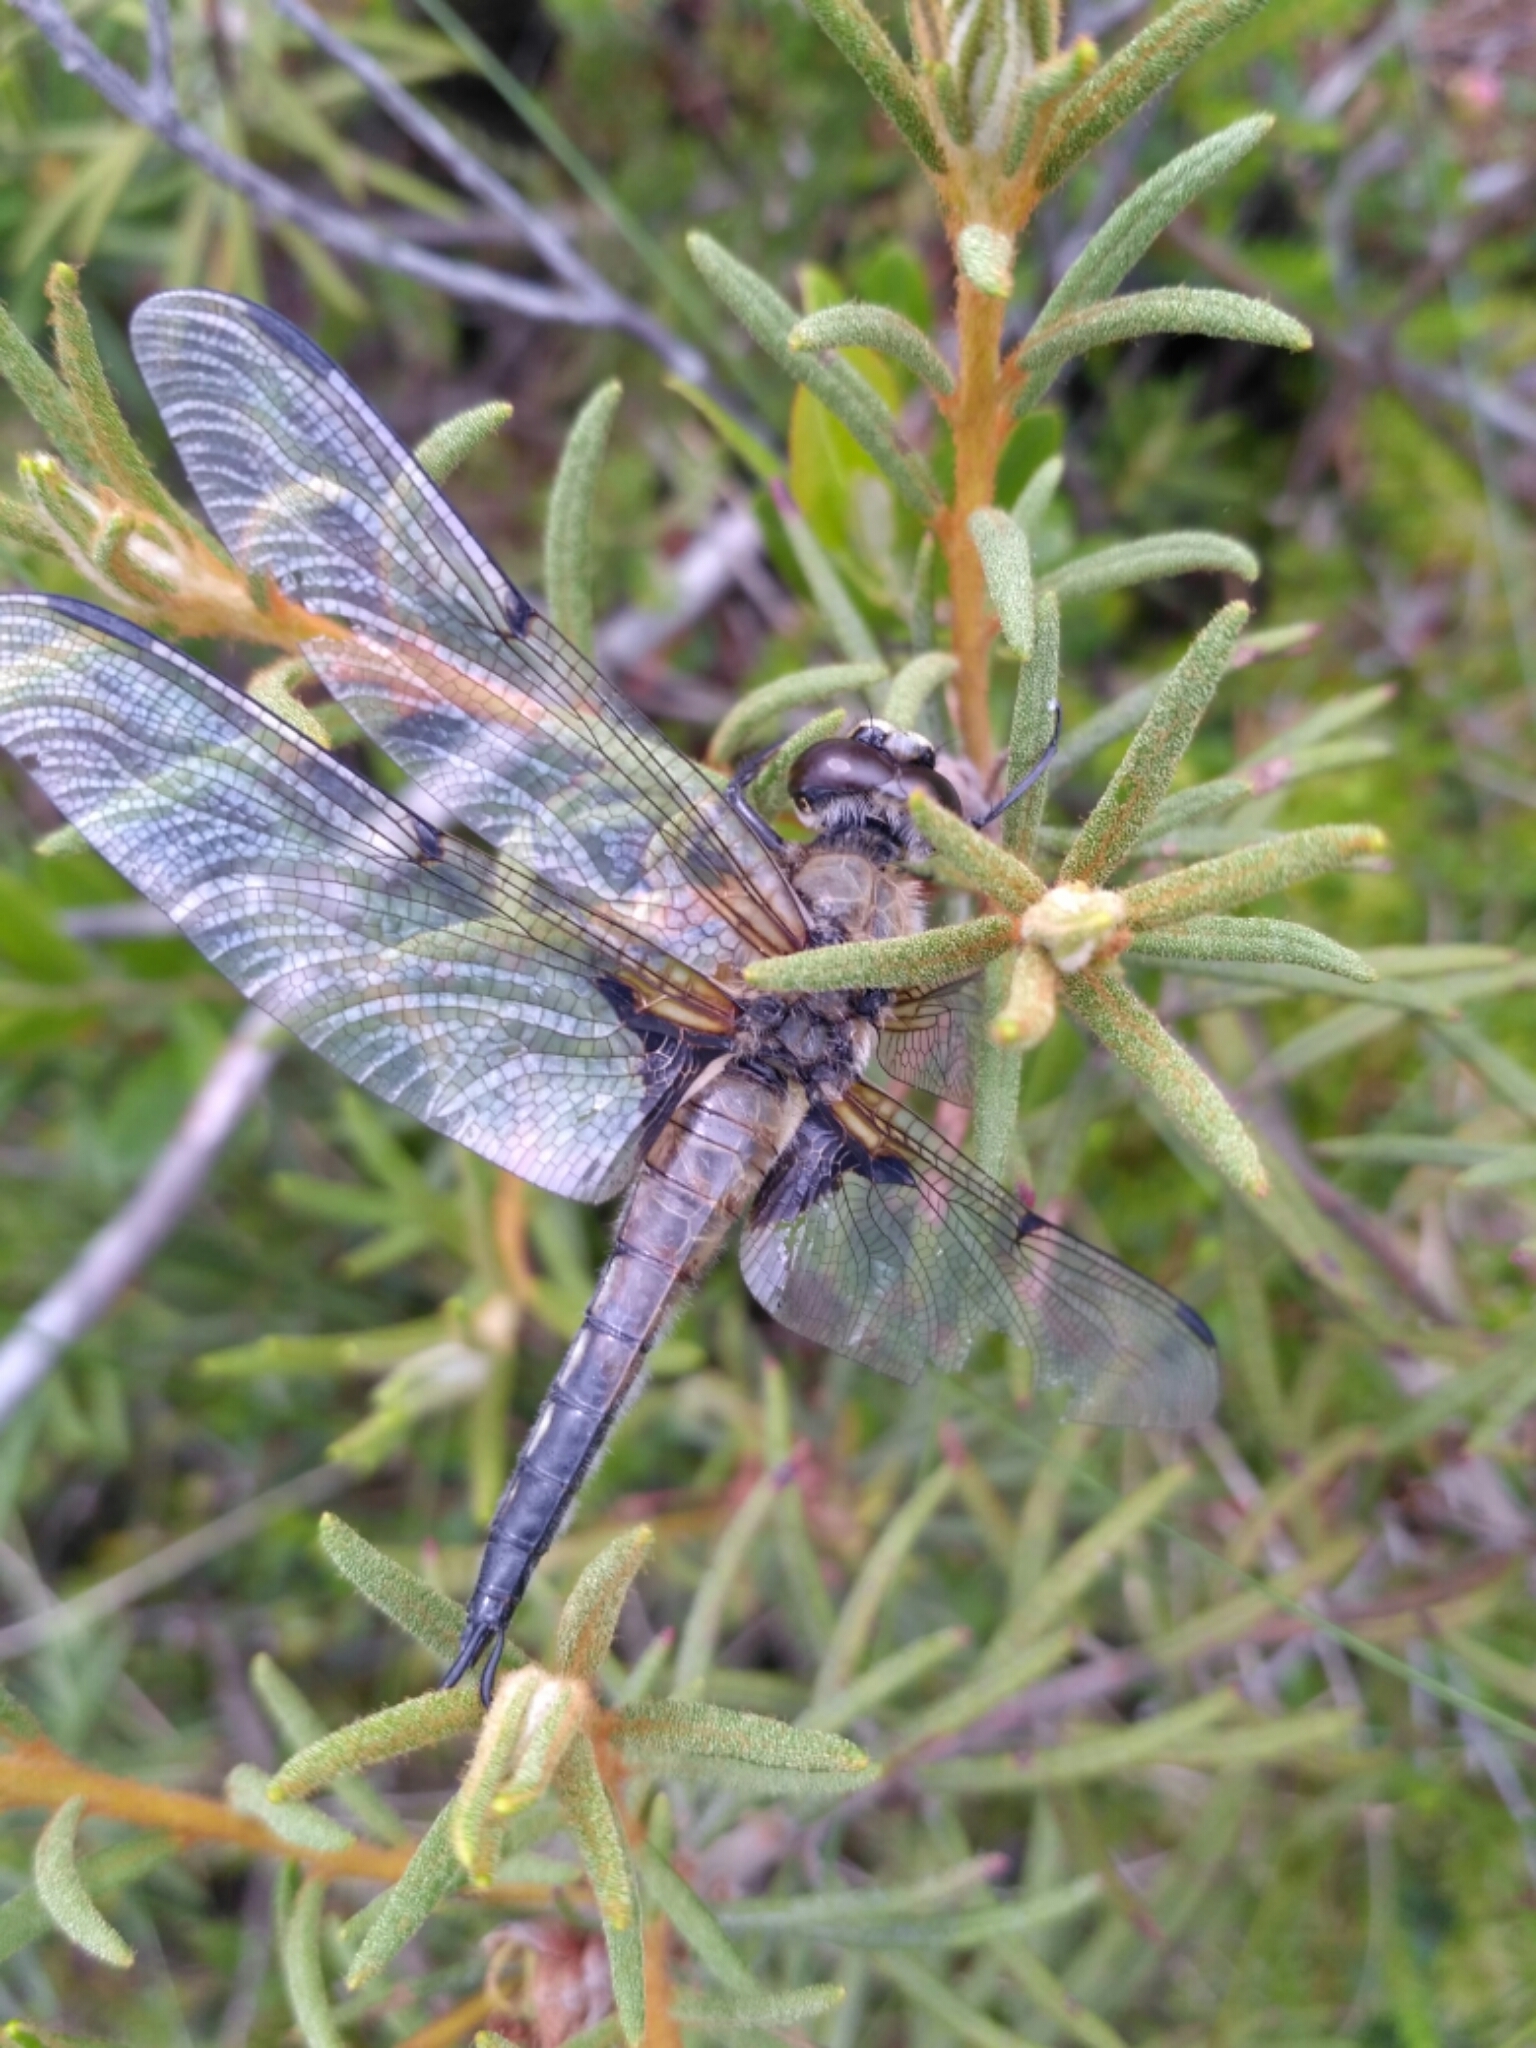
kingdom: Animalia
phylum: Arthropoda
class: Insecta
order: Odonata
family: Libellulidae
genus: Libellula
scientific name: Libellula quadrimaculata
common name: Four-spotted chaser
